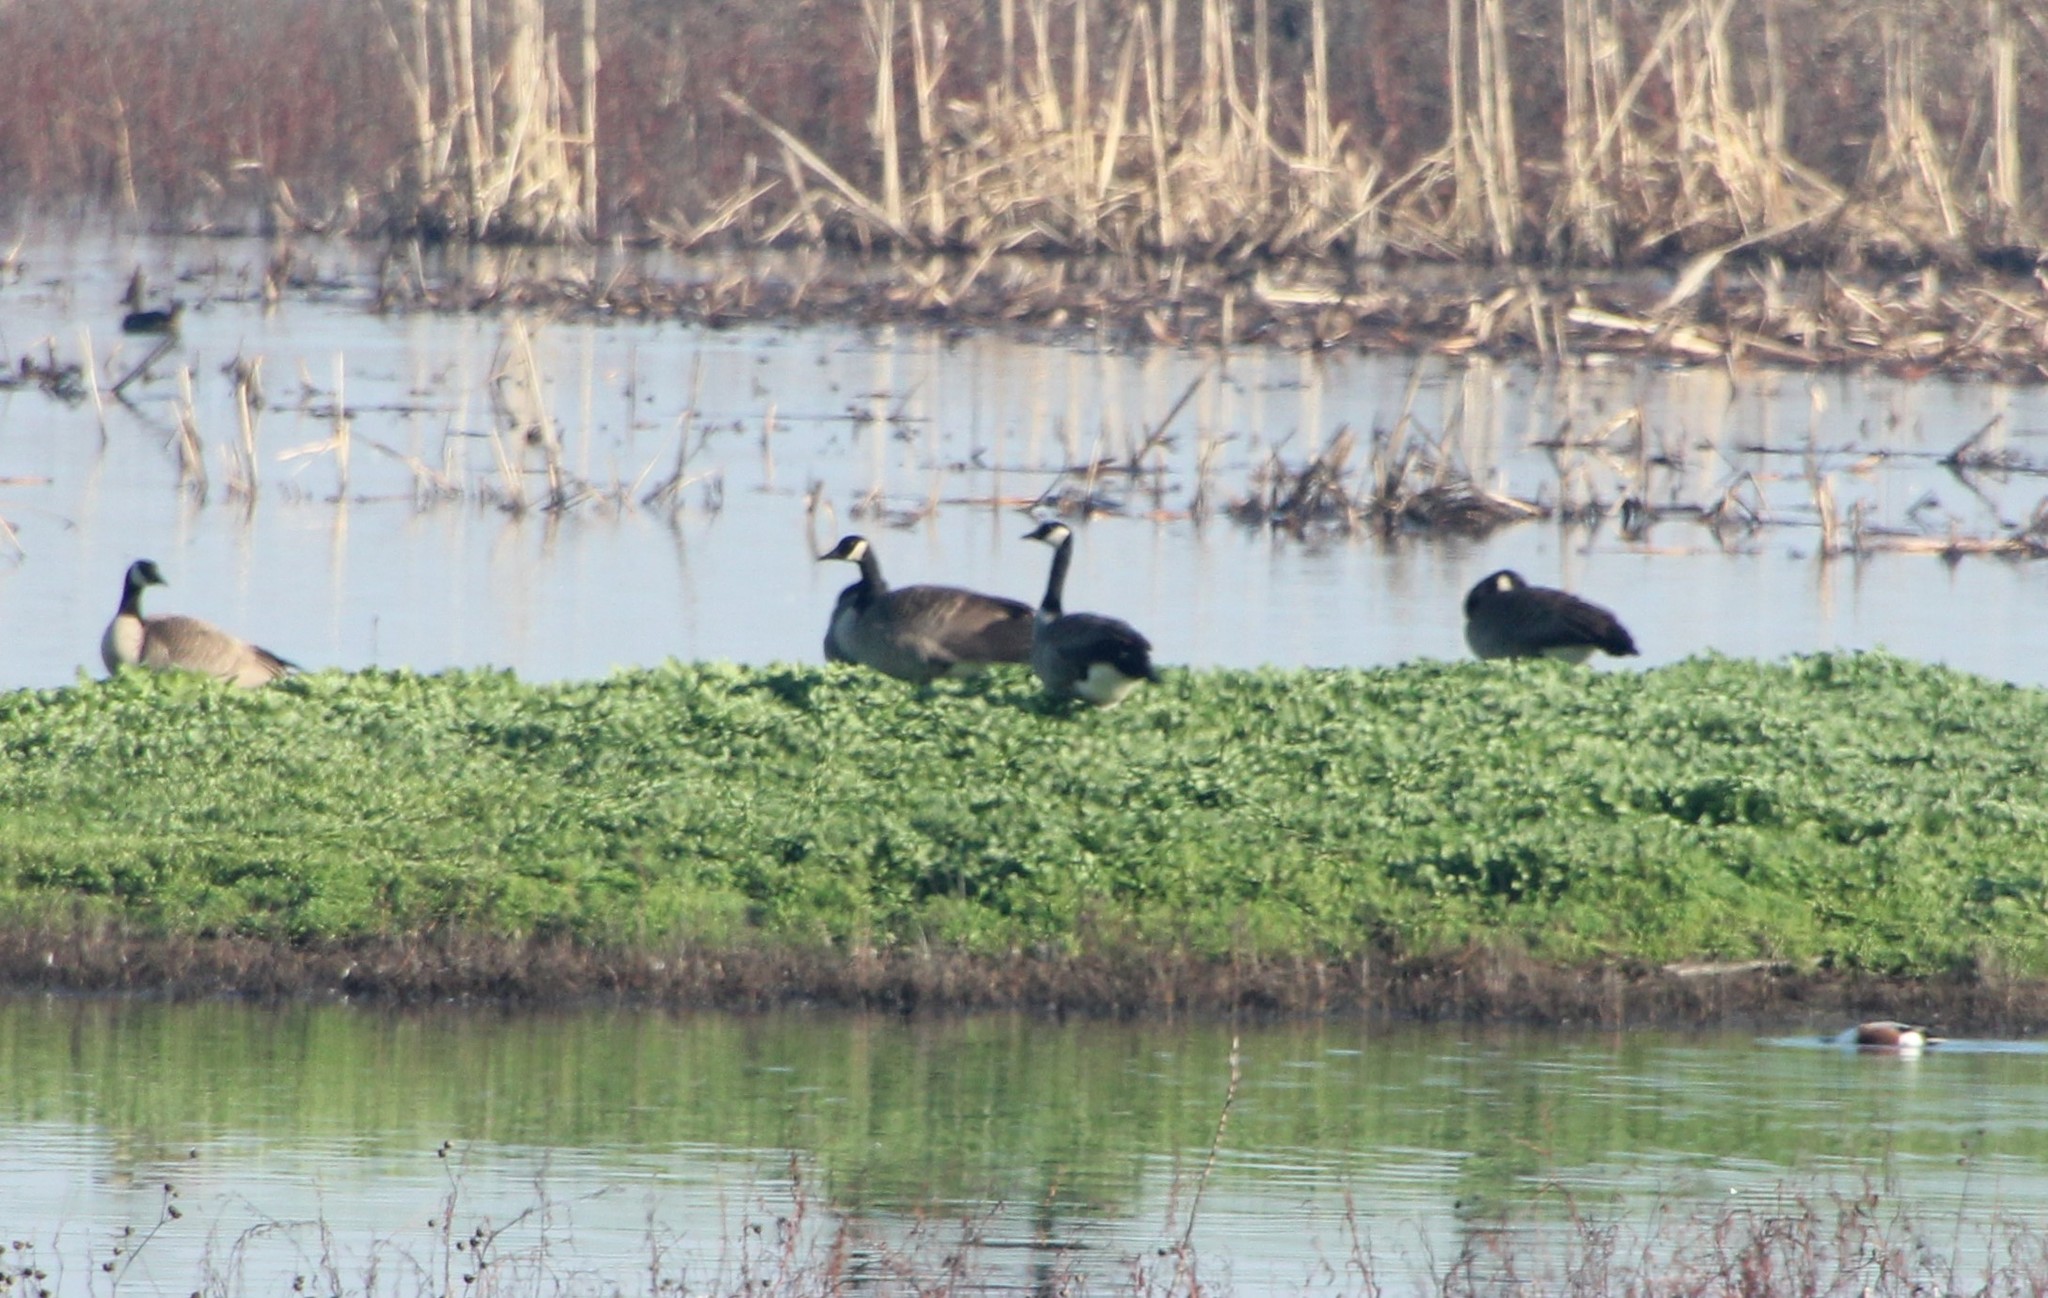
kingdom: Animalia
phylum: Chordata
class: Aves
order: Anseriformes
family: Anatidae
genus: Branta
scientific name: Branta canadensis
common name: Canada goose
